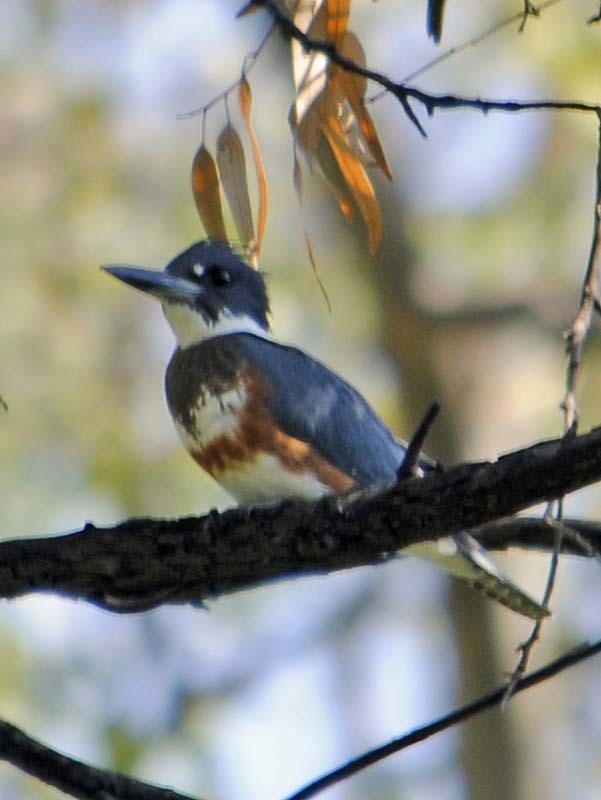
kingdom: Animalia
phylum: Chordata
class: Aves
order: Coraciiformes
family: Alcedinidae
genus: Megaceryle
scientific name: Megaceryle alcyon
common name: Belted kingfisher
